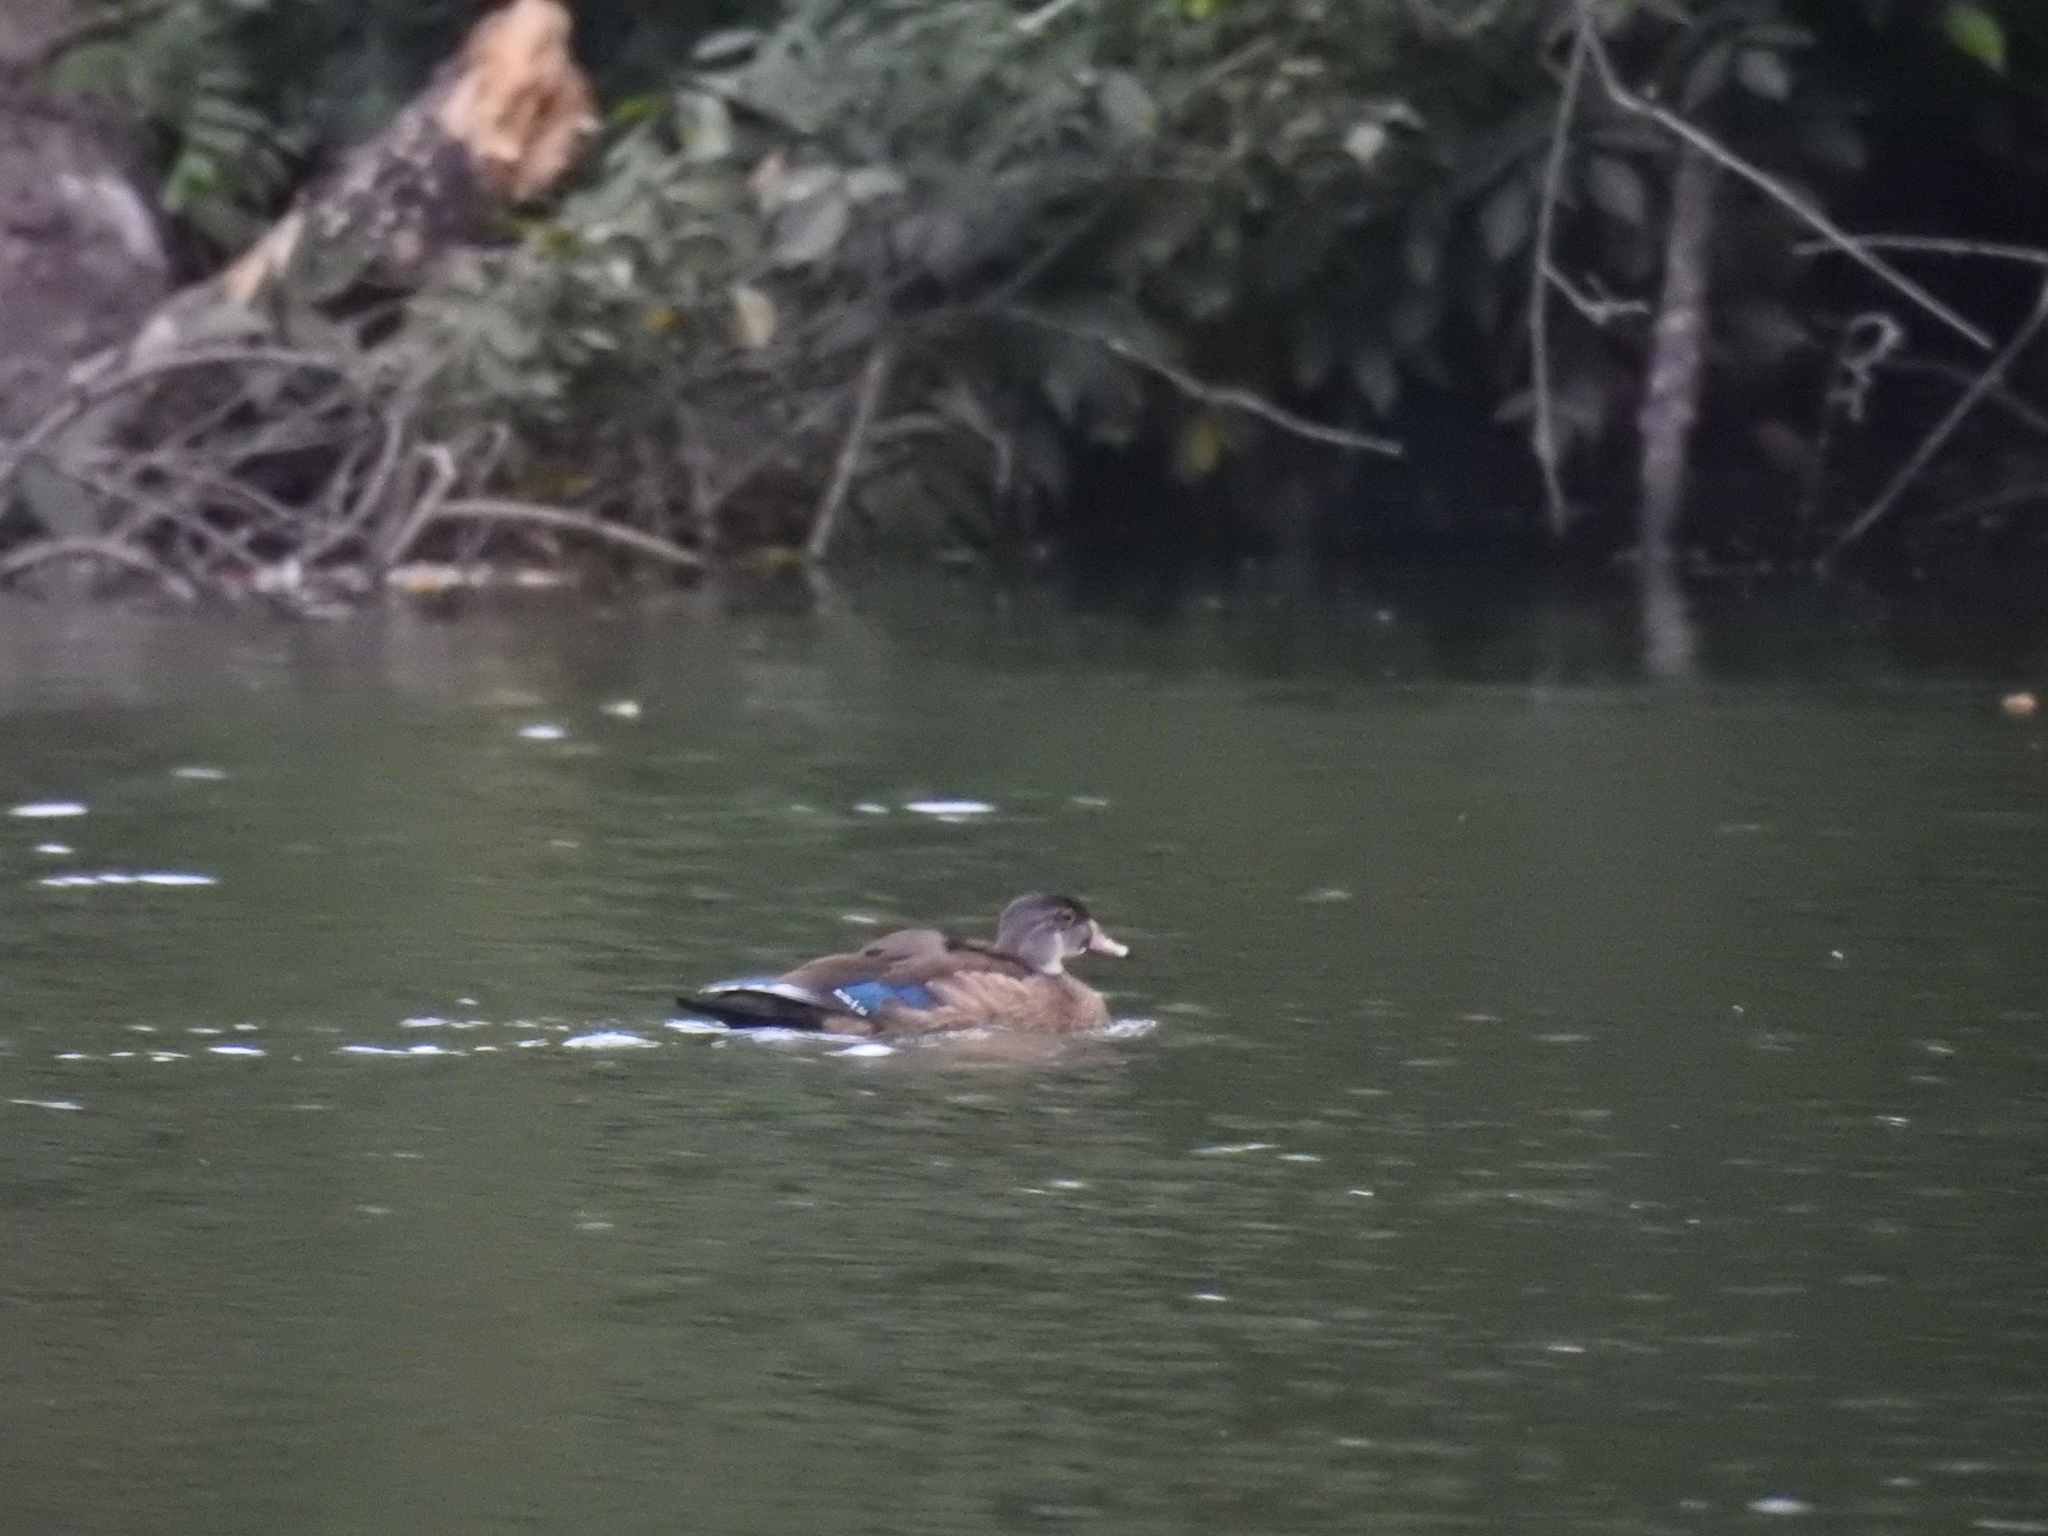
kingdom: Animalia
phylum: Chordata
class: Aves
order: Anseriformes
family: Anatidae
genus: Aix
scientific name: Aix sponsa
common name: Wood duck
